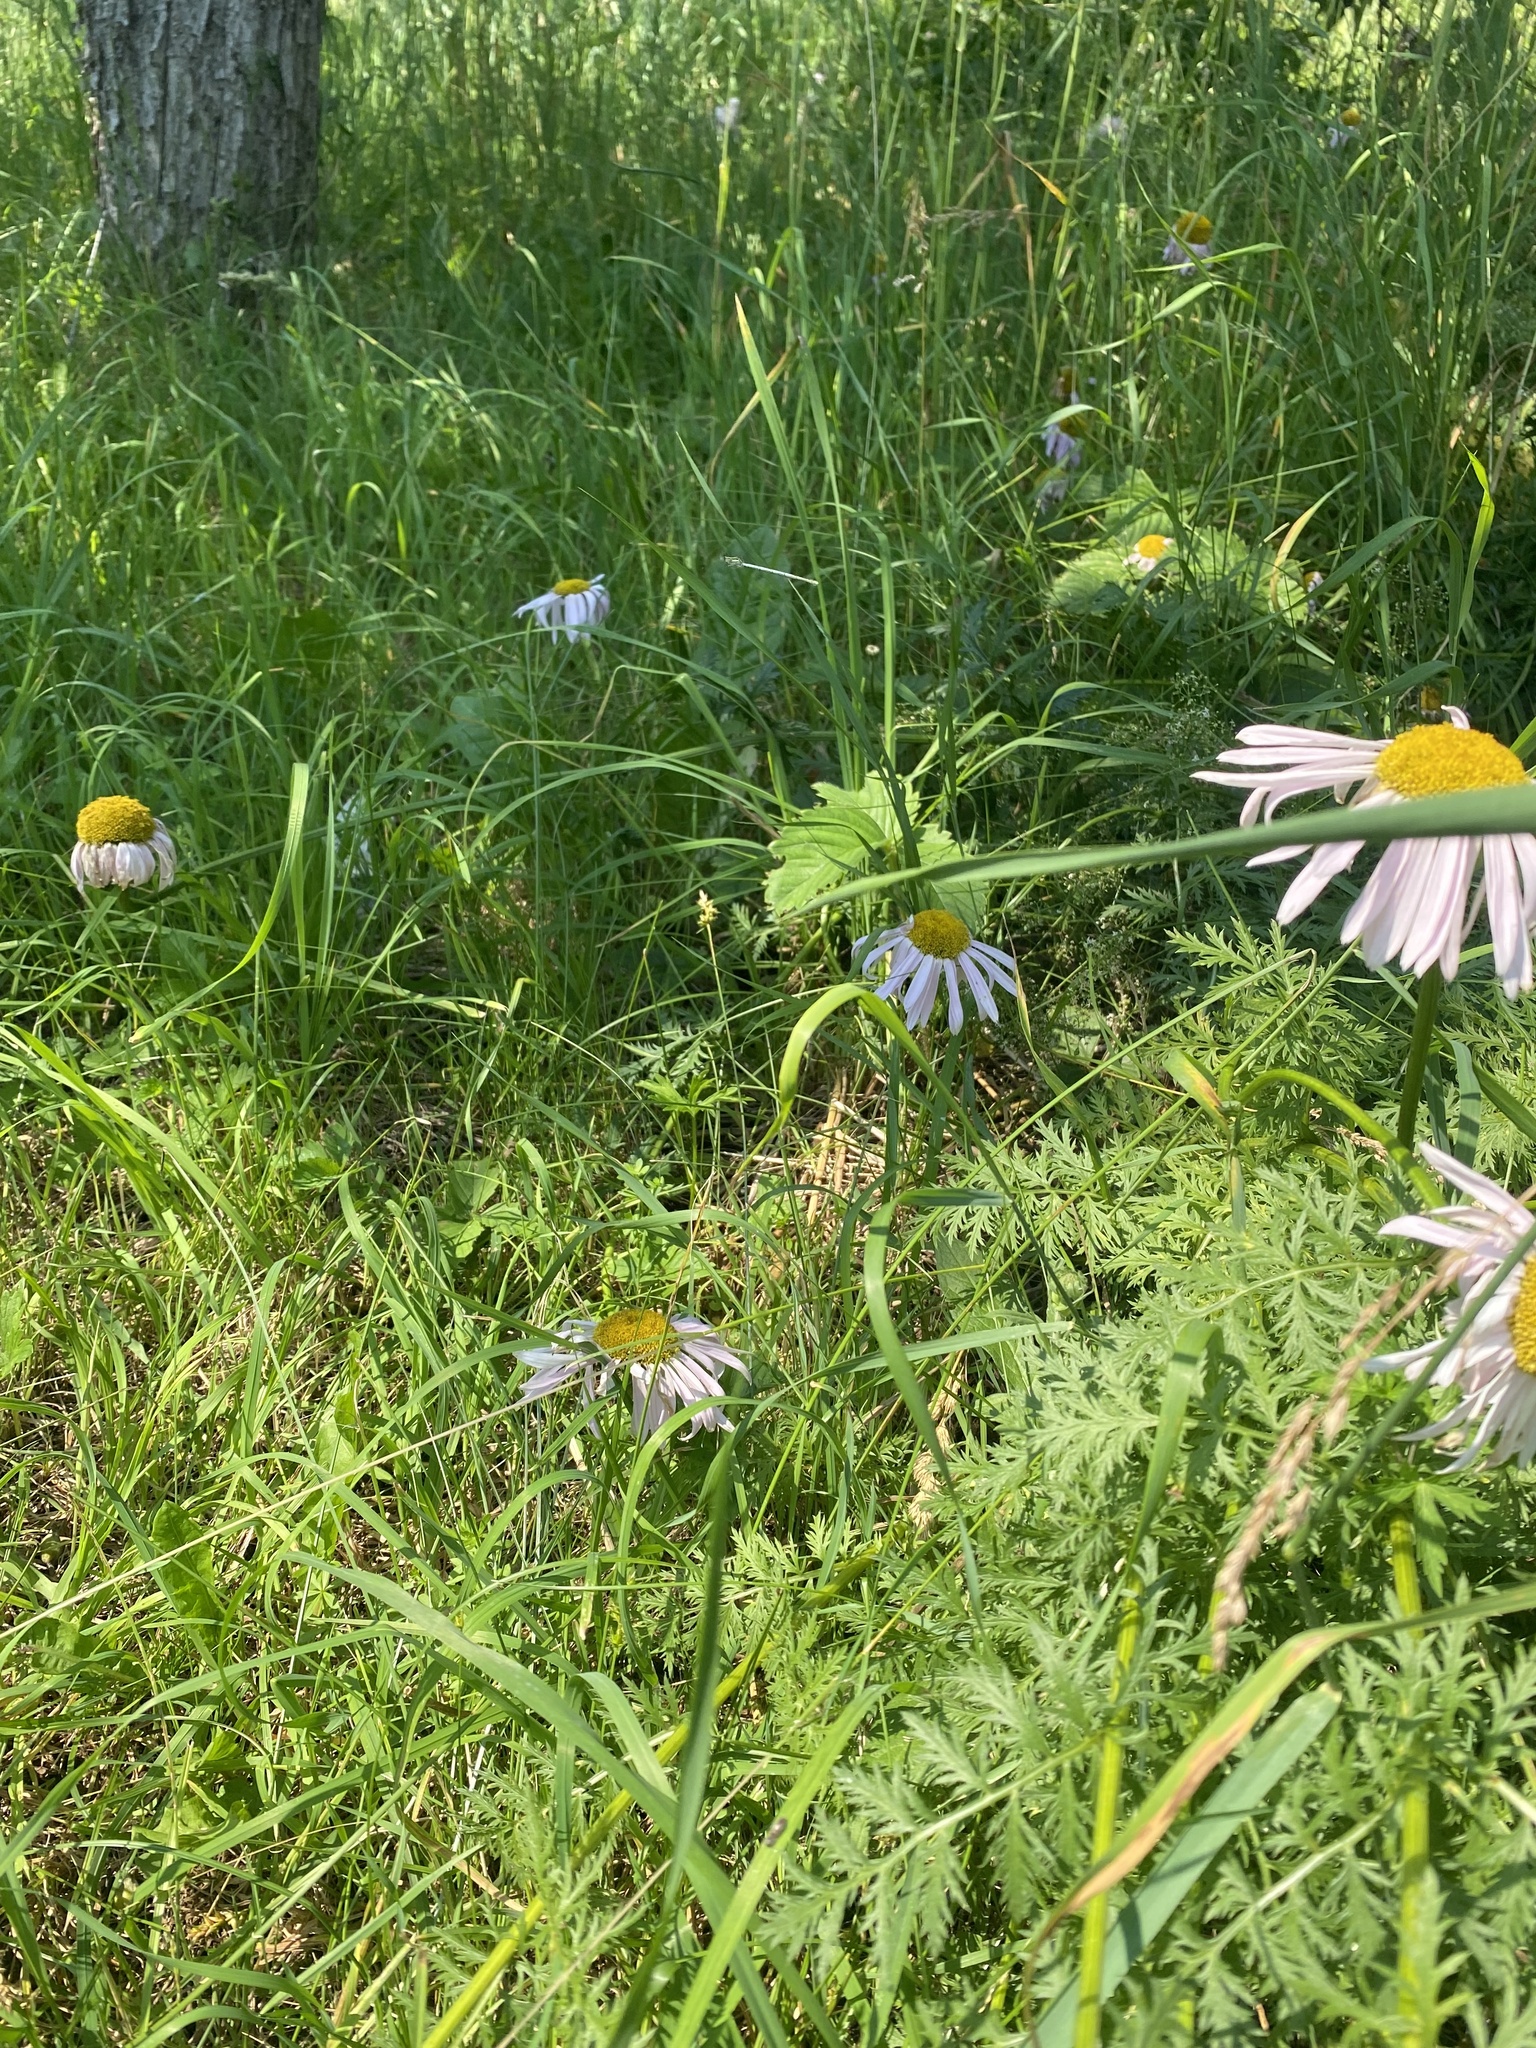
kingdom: Animalia
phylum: Arthropoda
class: Insecta
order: Odonata
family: Platycnemididae
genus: Platycnemis
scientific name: Platycnemis pennipes
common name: White-legged damselfly
